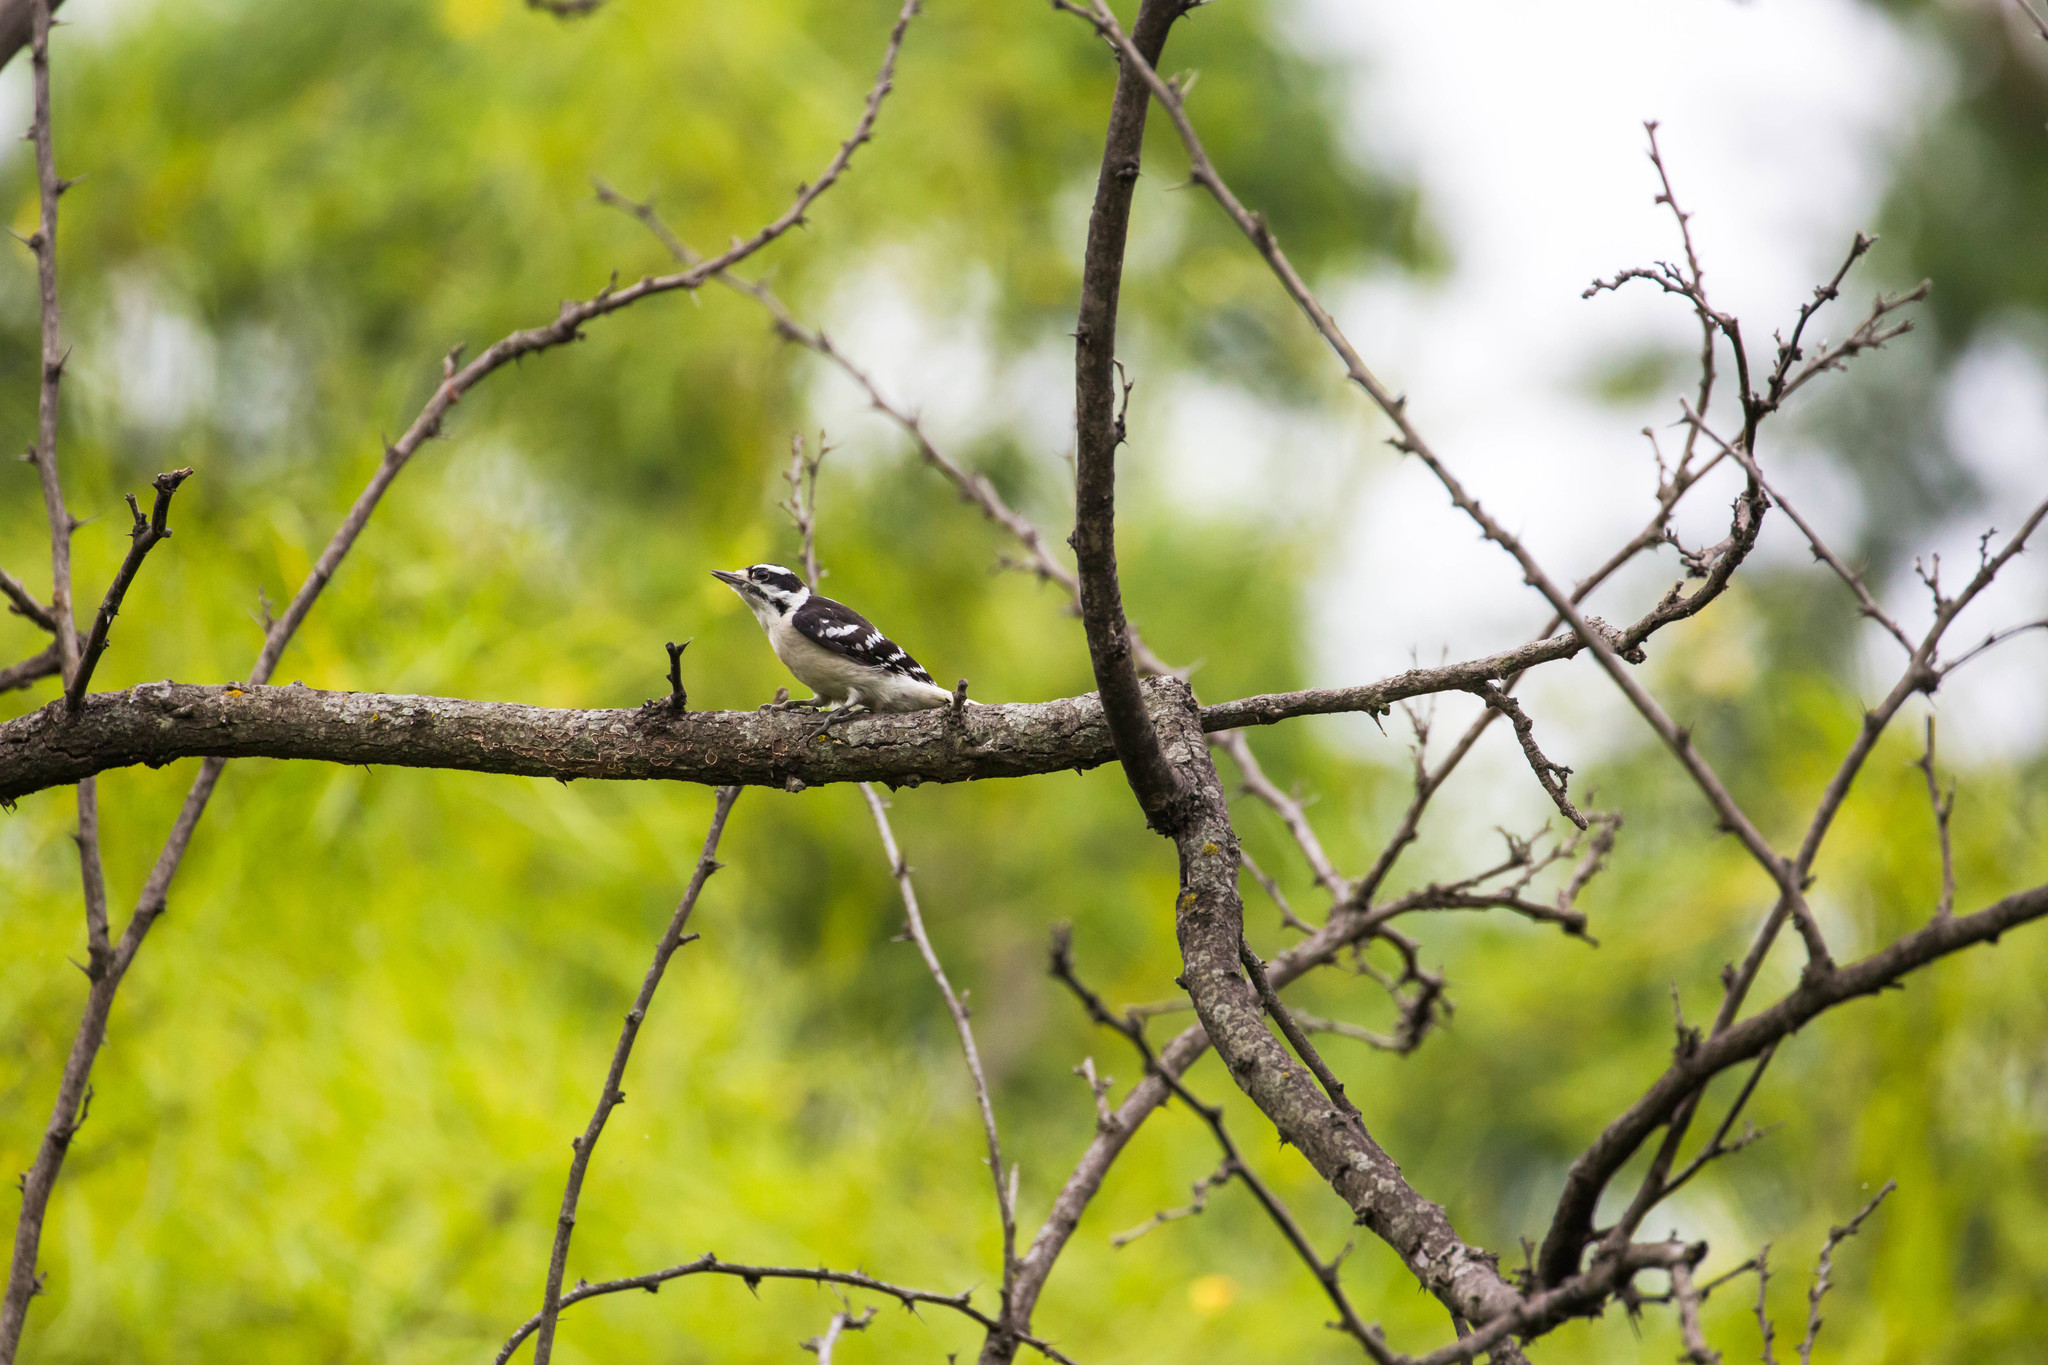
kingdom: Animalia
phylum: Chordata
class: Aves
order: Piciformes
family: Picidae
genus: Dryobates
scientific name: Dryobates pubescens
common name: Downy woodpecker
